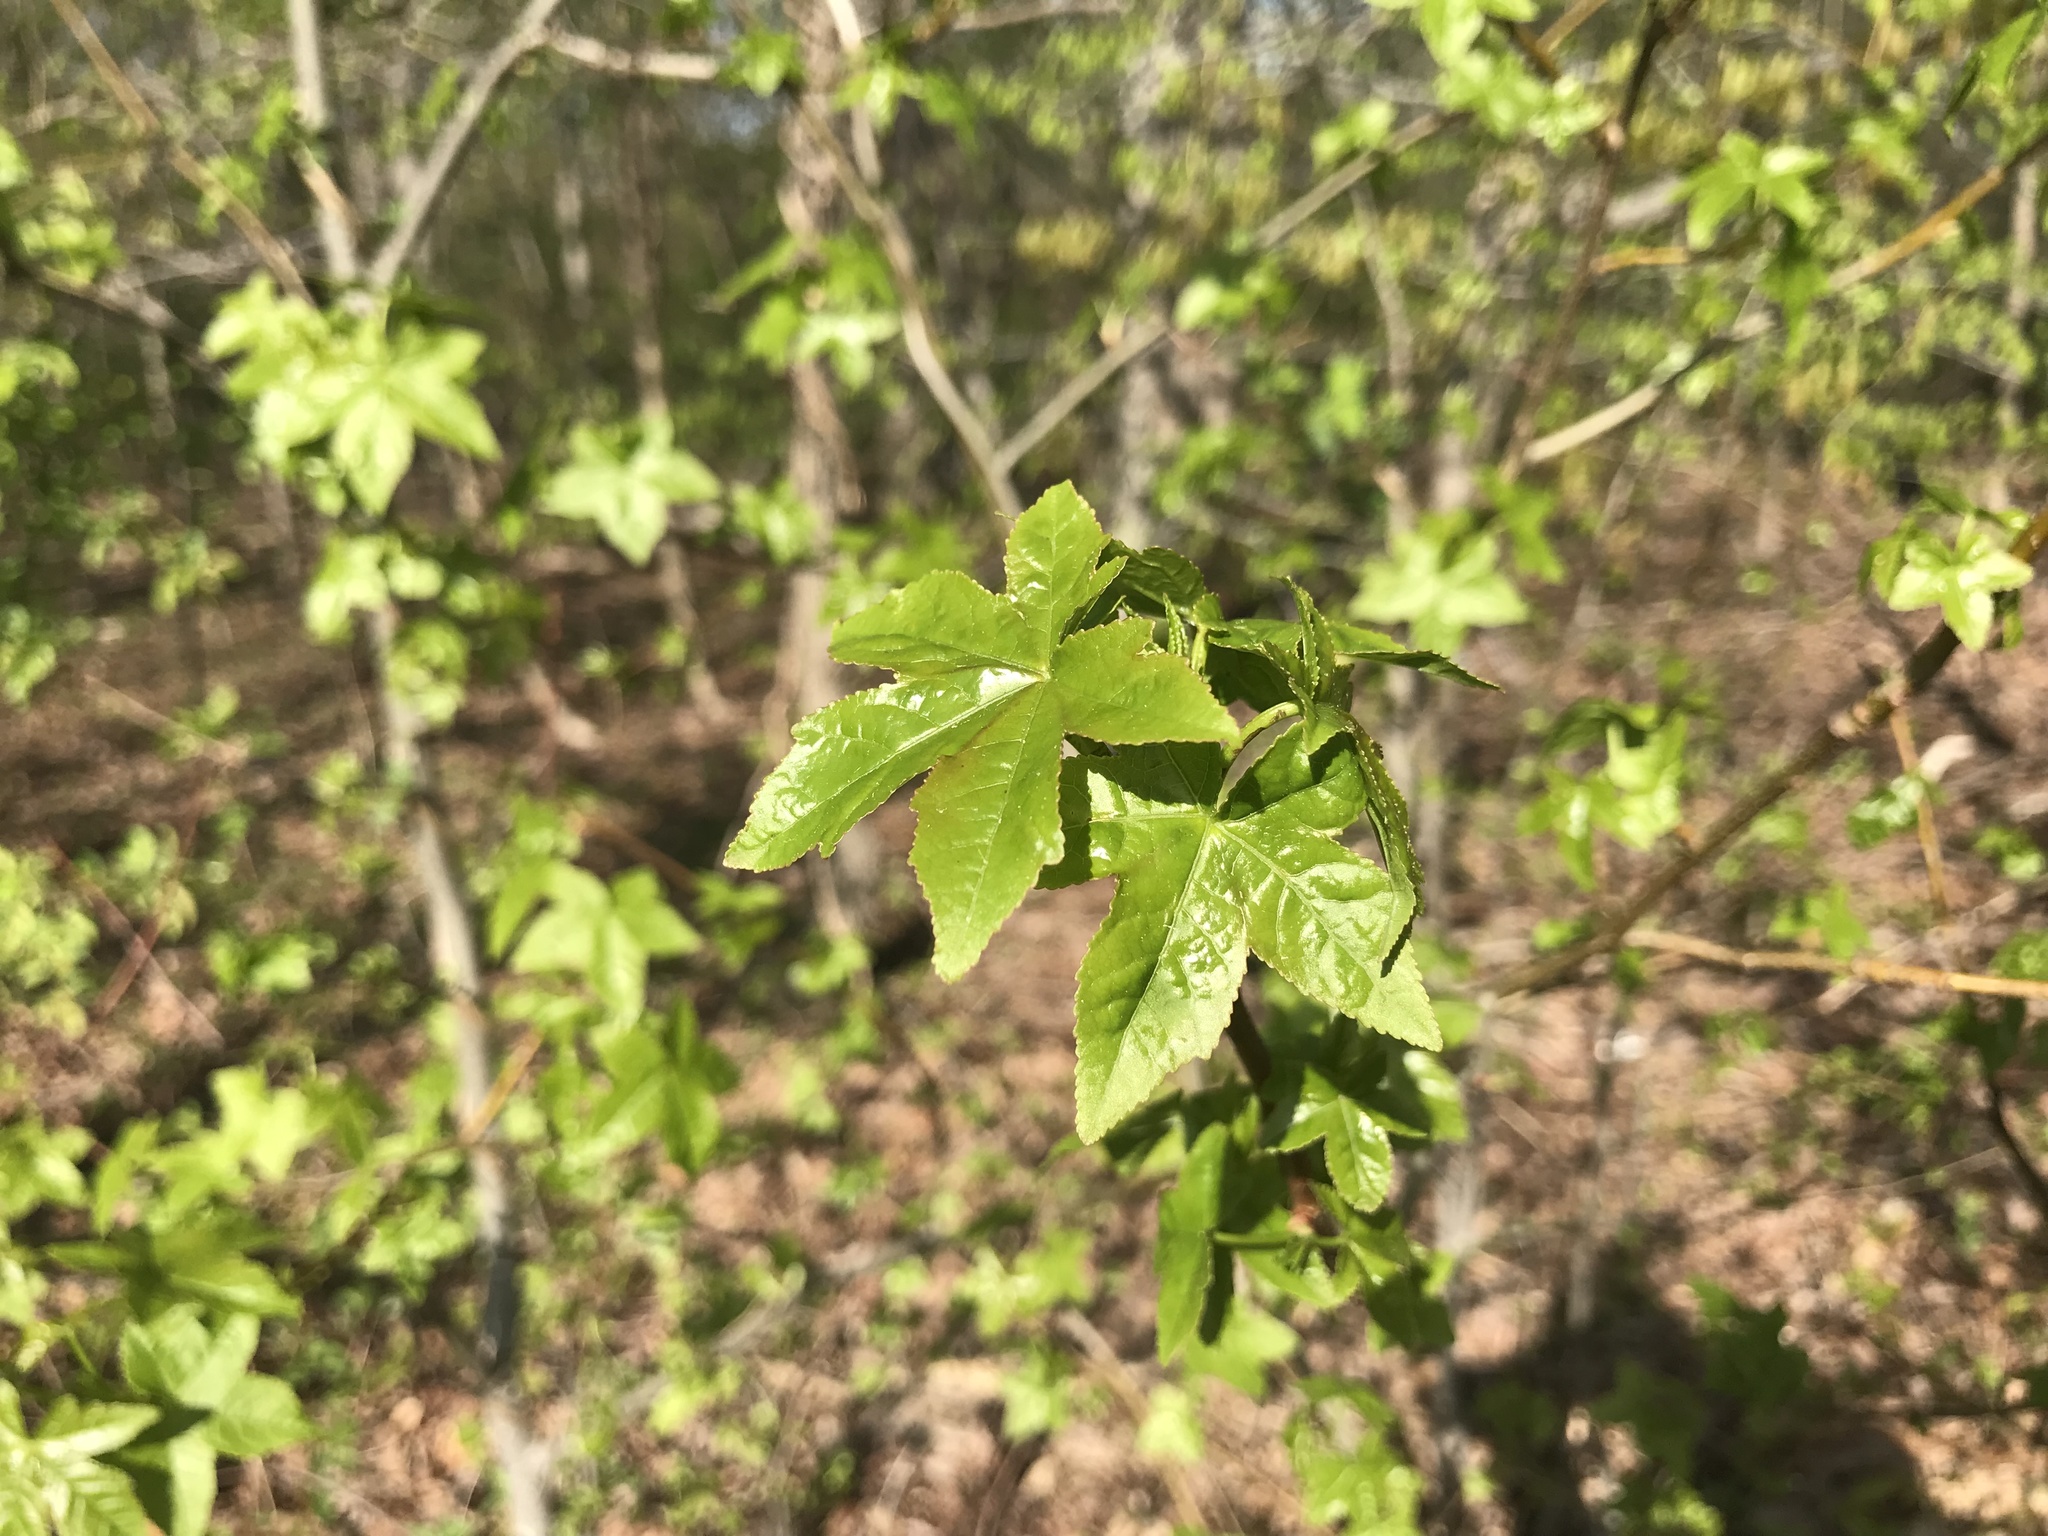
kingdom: Plantae
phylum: Tracheophyta
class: Magnoliopsida
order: Saxifragales
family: Altingiaceae
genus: Liquidambar
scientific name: Liquidambar styraciflua
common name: Sweet gum
